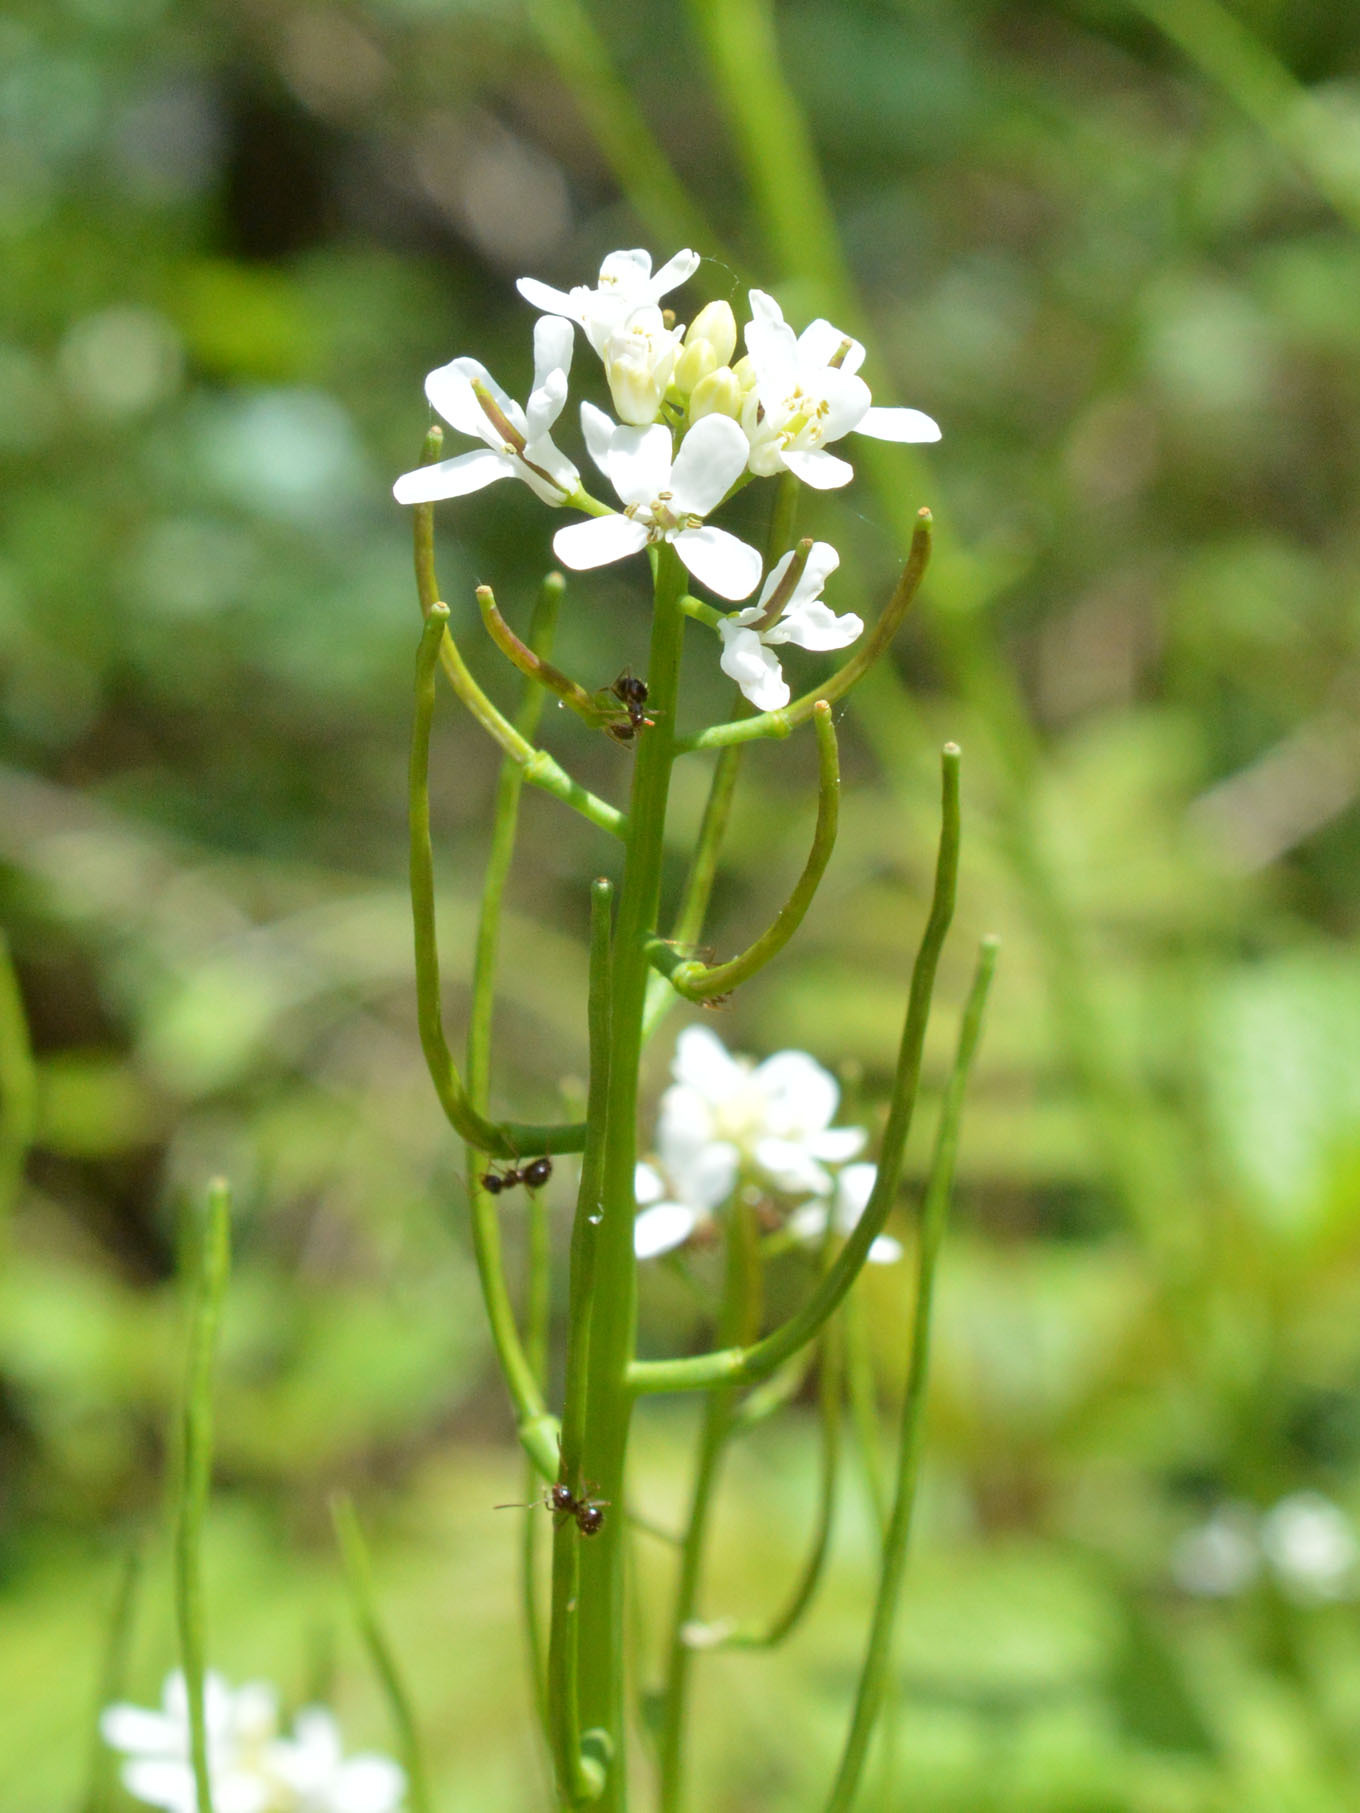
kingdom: Plantae
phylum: Tracheophyta
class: Magnoliopsida
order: Brassicales
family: Brassicaceae
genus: Alliaria
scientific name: Alliaria petiolata
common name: Garlic mustard
